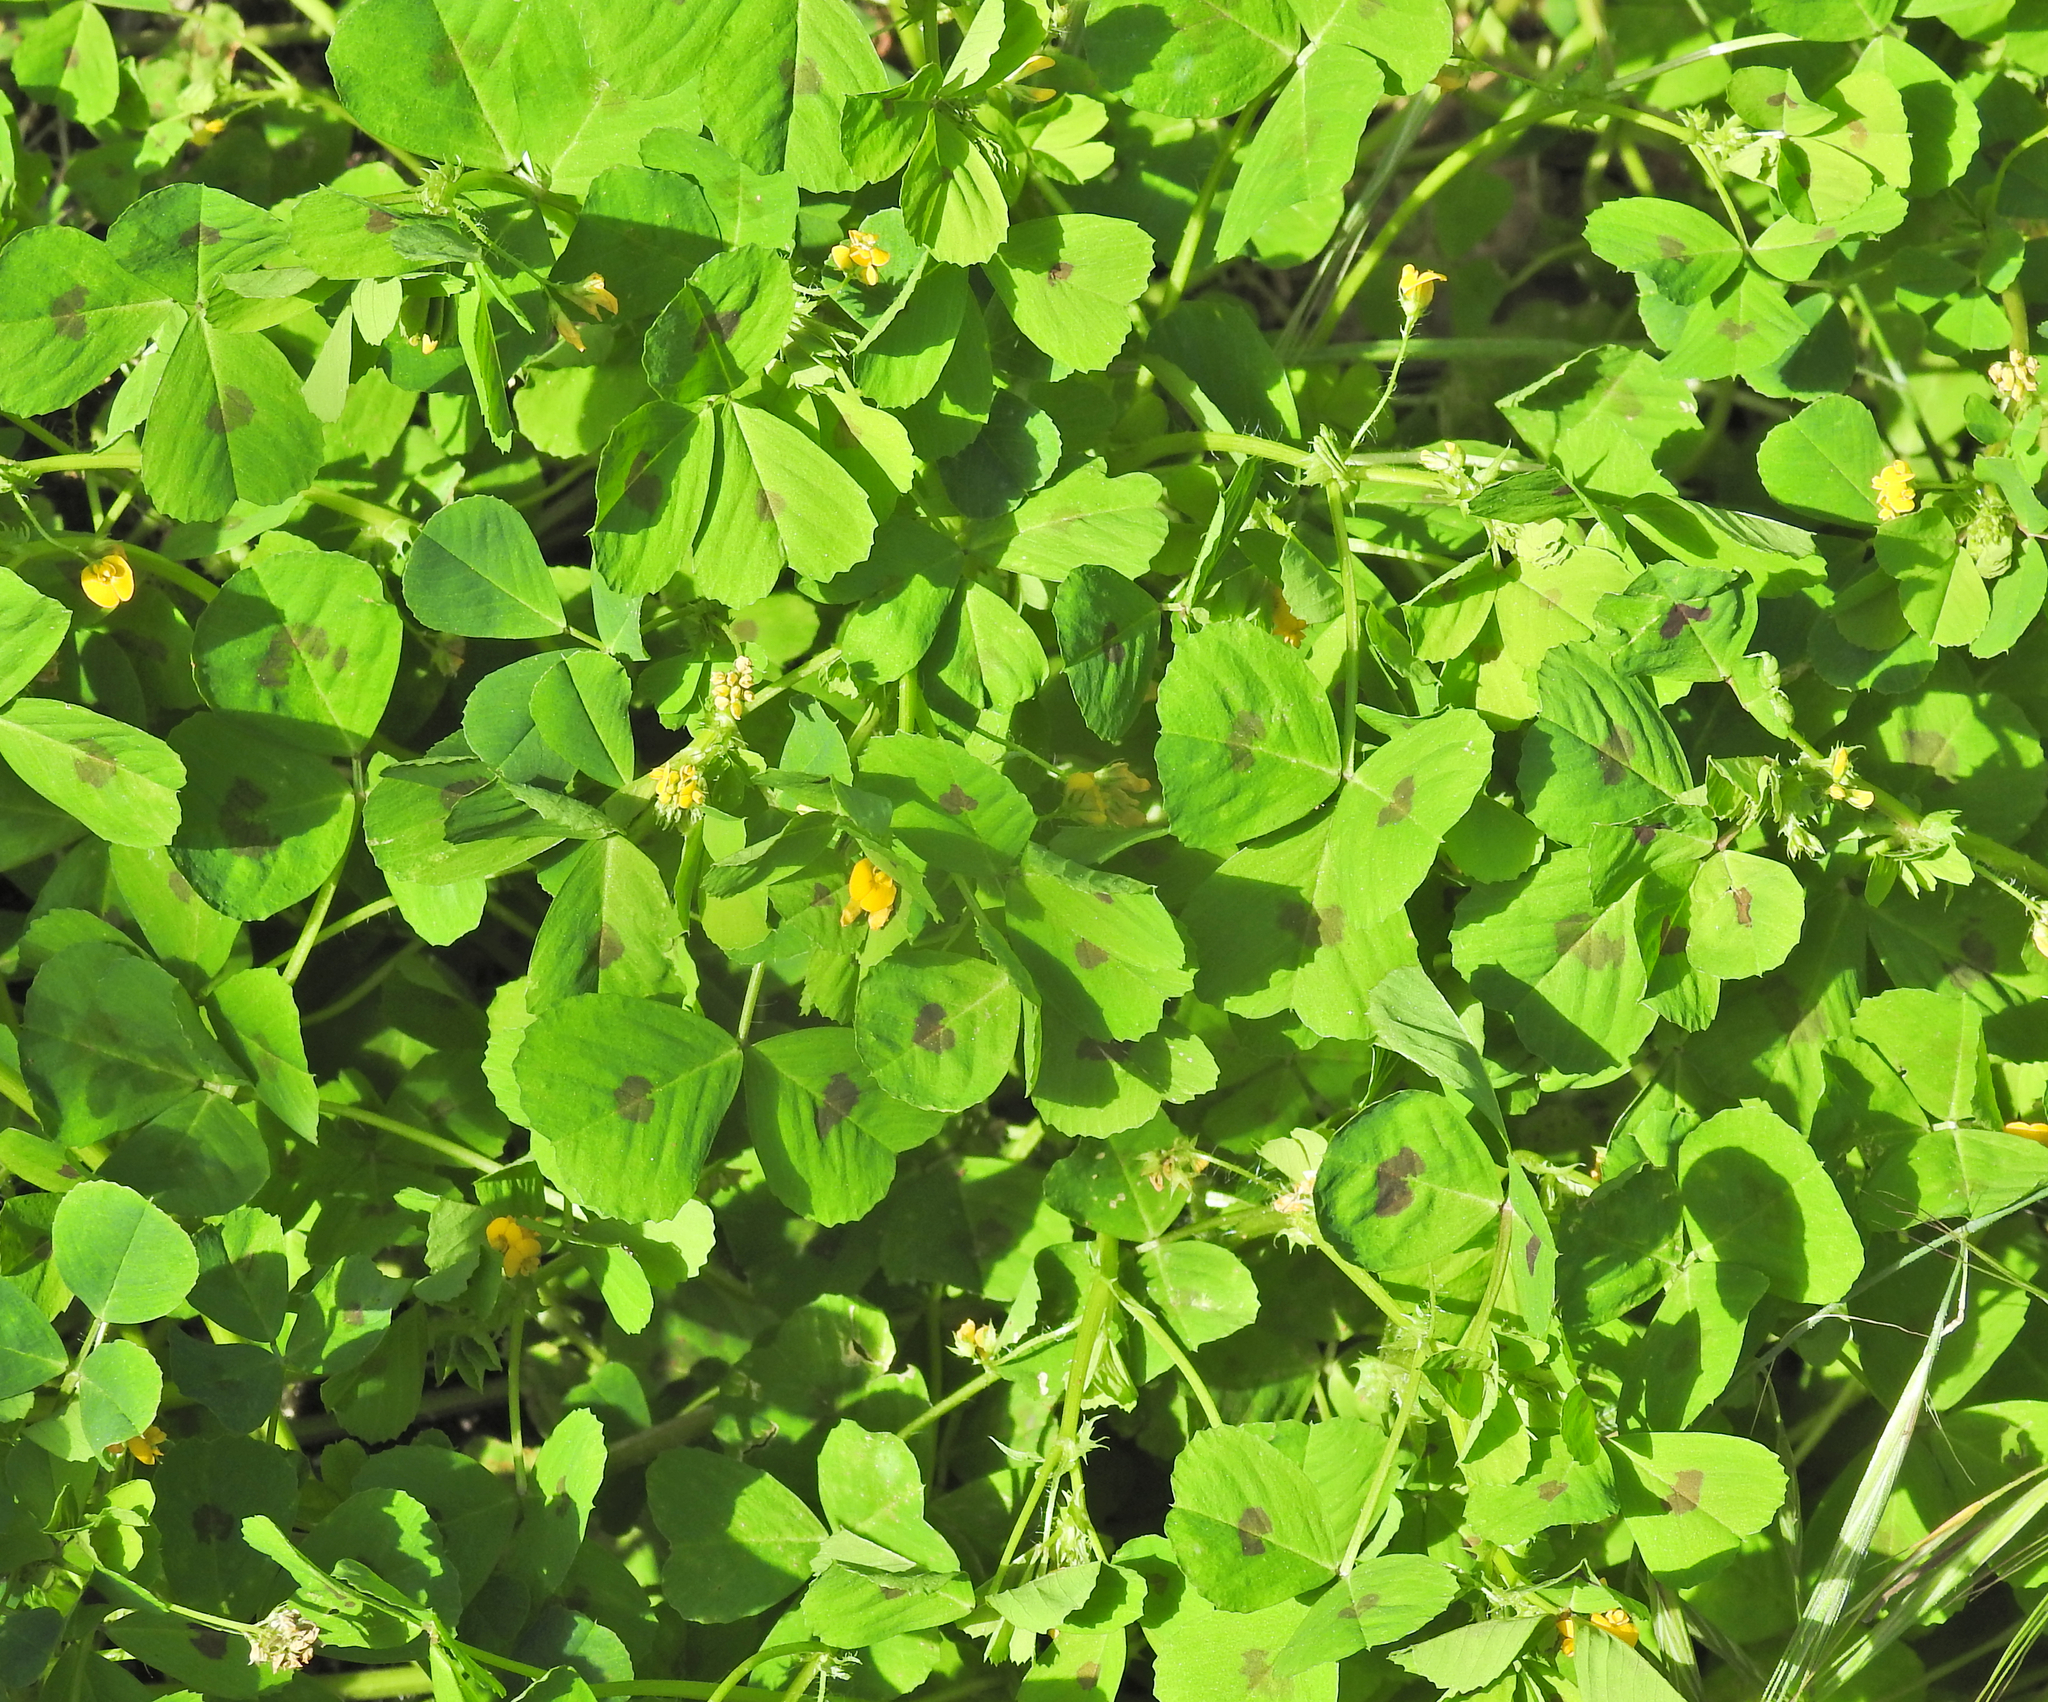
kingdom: Plantae
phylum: Tracheophyta
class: Magnoliopsida
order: Fabales
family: Fabaceae
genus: Medicago
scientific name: Medicago arabica
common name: Spotted medick
